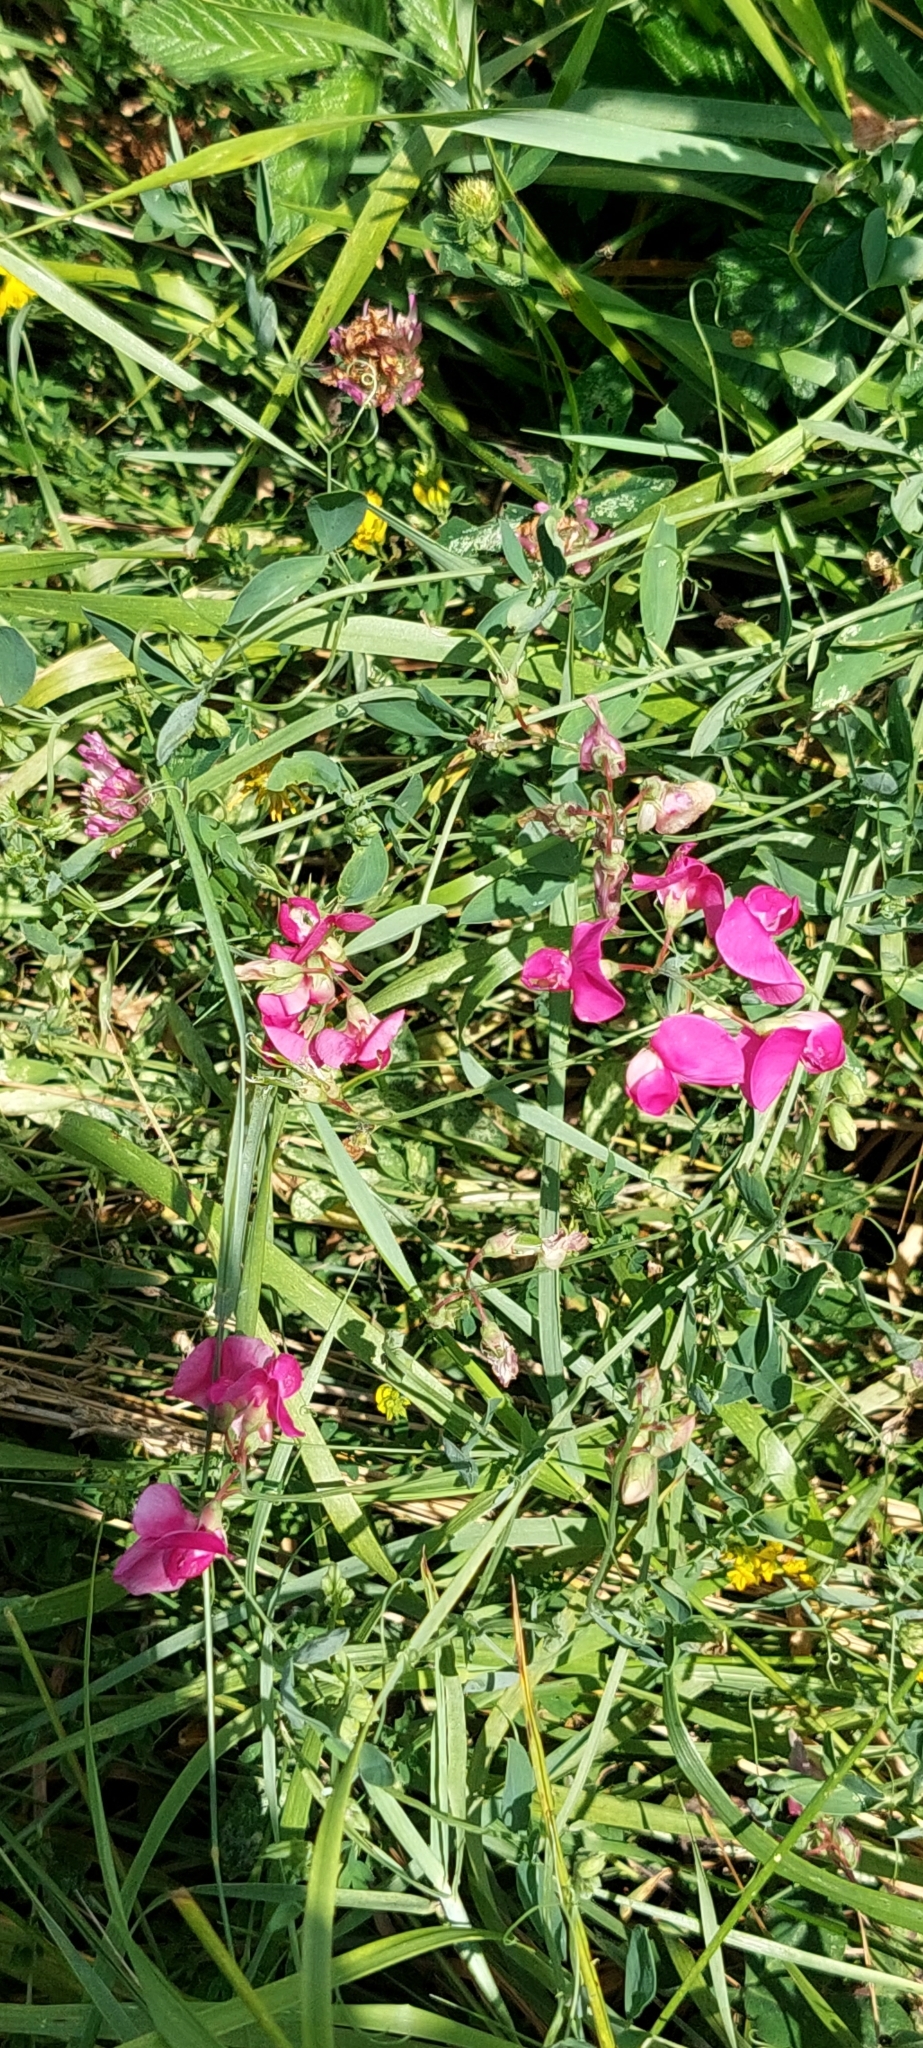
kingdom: Plantae
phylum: Tracheophyta
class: Magnoliopsida
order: Fabales
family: Fabaceae
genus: Lathyrus
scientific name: Lathyrus tuberosus
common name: Tuberous pea
